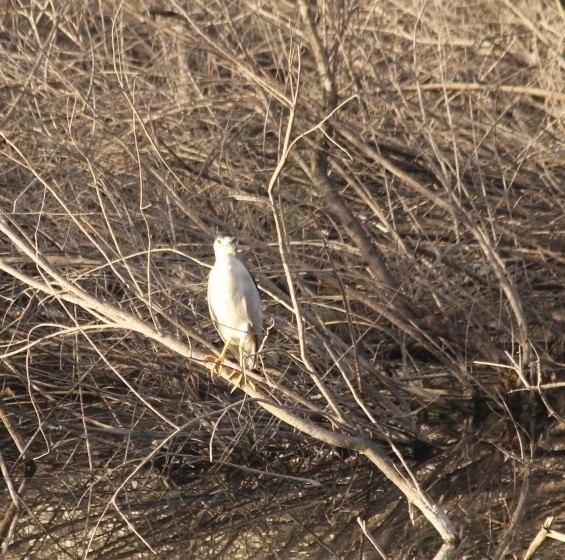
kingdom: Animalia
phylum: Chordata
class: Aves
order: Pelecaniformes
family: Ardeidae
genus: Nycticorax
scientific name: Nycticorax nycticorax
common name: Black-crowned night heron
